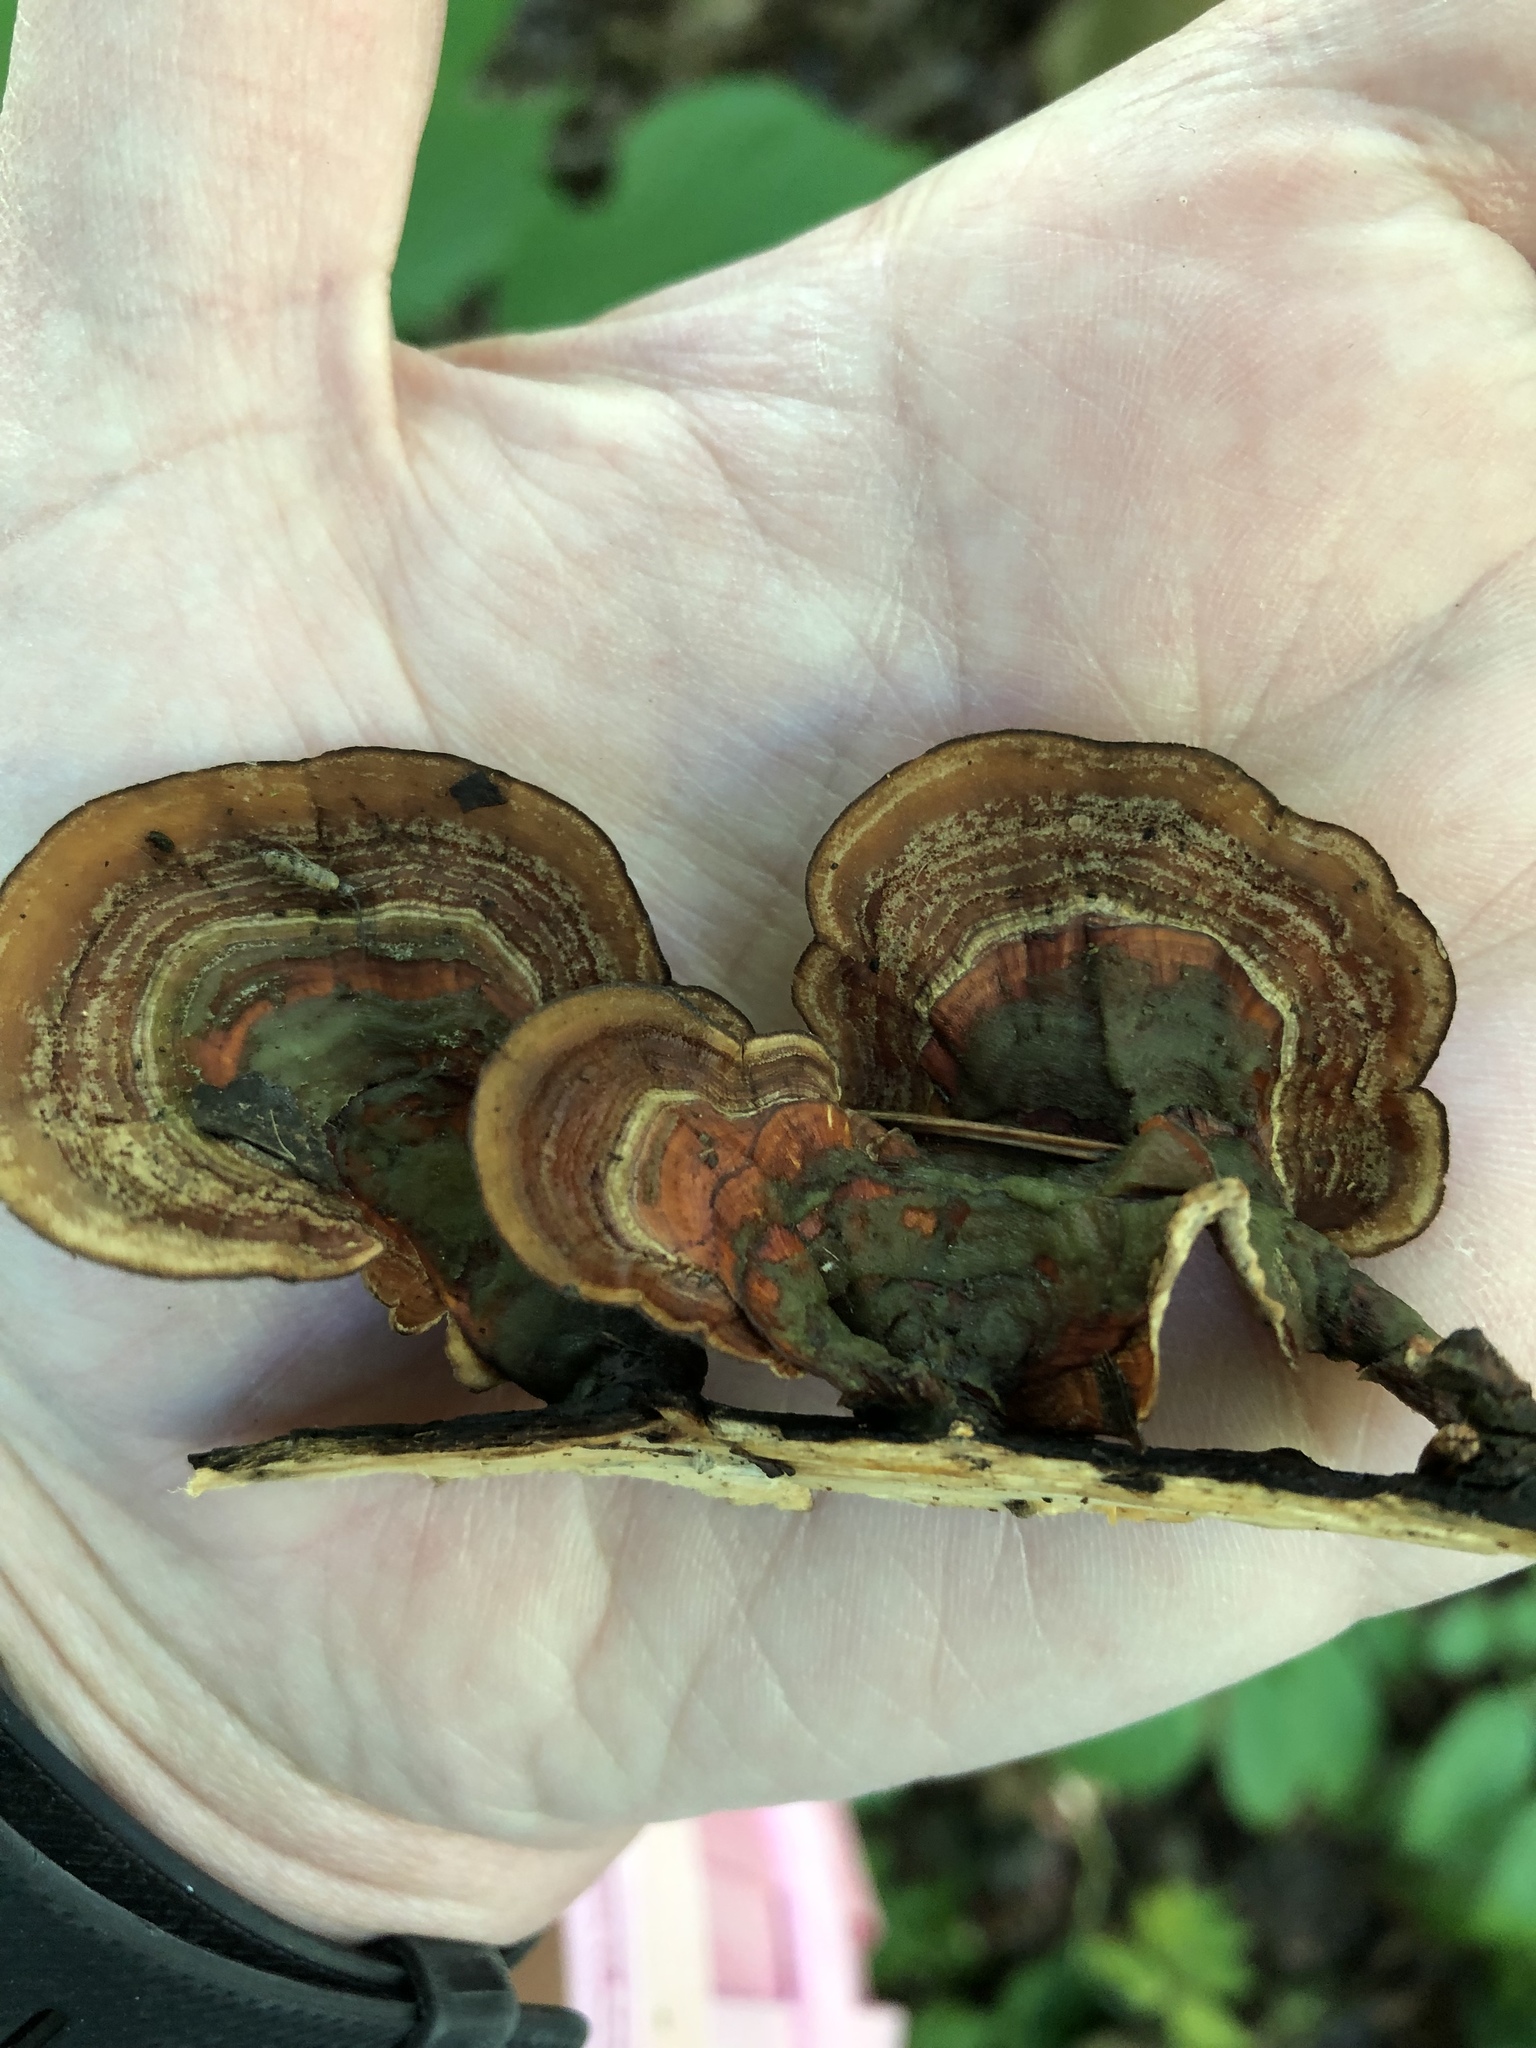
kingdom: Fungi
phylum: Basidiomycota
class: Agaricomycetes
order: Russulales
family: Stereaceae
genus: Stereum
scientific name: Stereum ostrea
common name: False turkeytail
